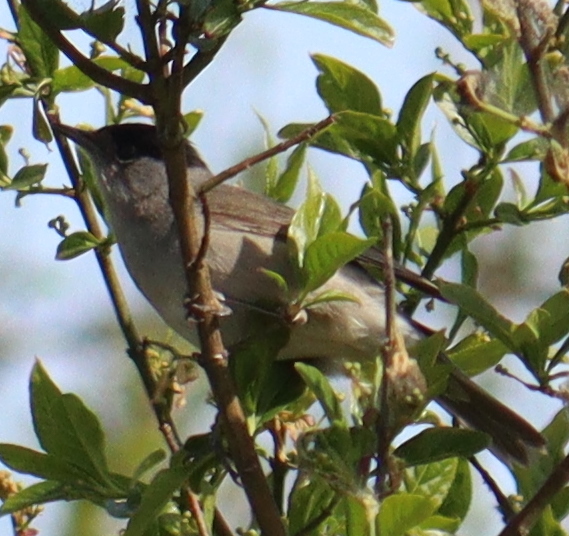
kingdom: Animalia
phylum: Chordata
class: Aves
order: Passeriformes
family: Sylviidae
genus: Sylvia
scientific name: Sylvia atricapilla
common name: Eurasian blackcap
